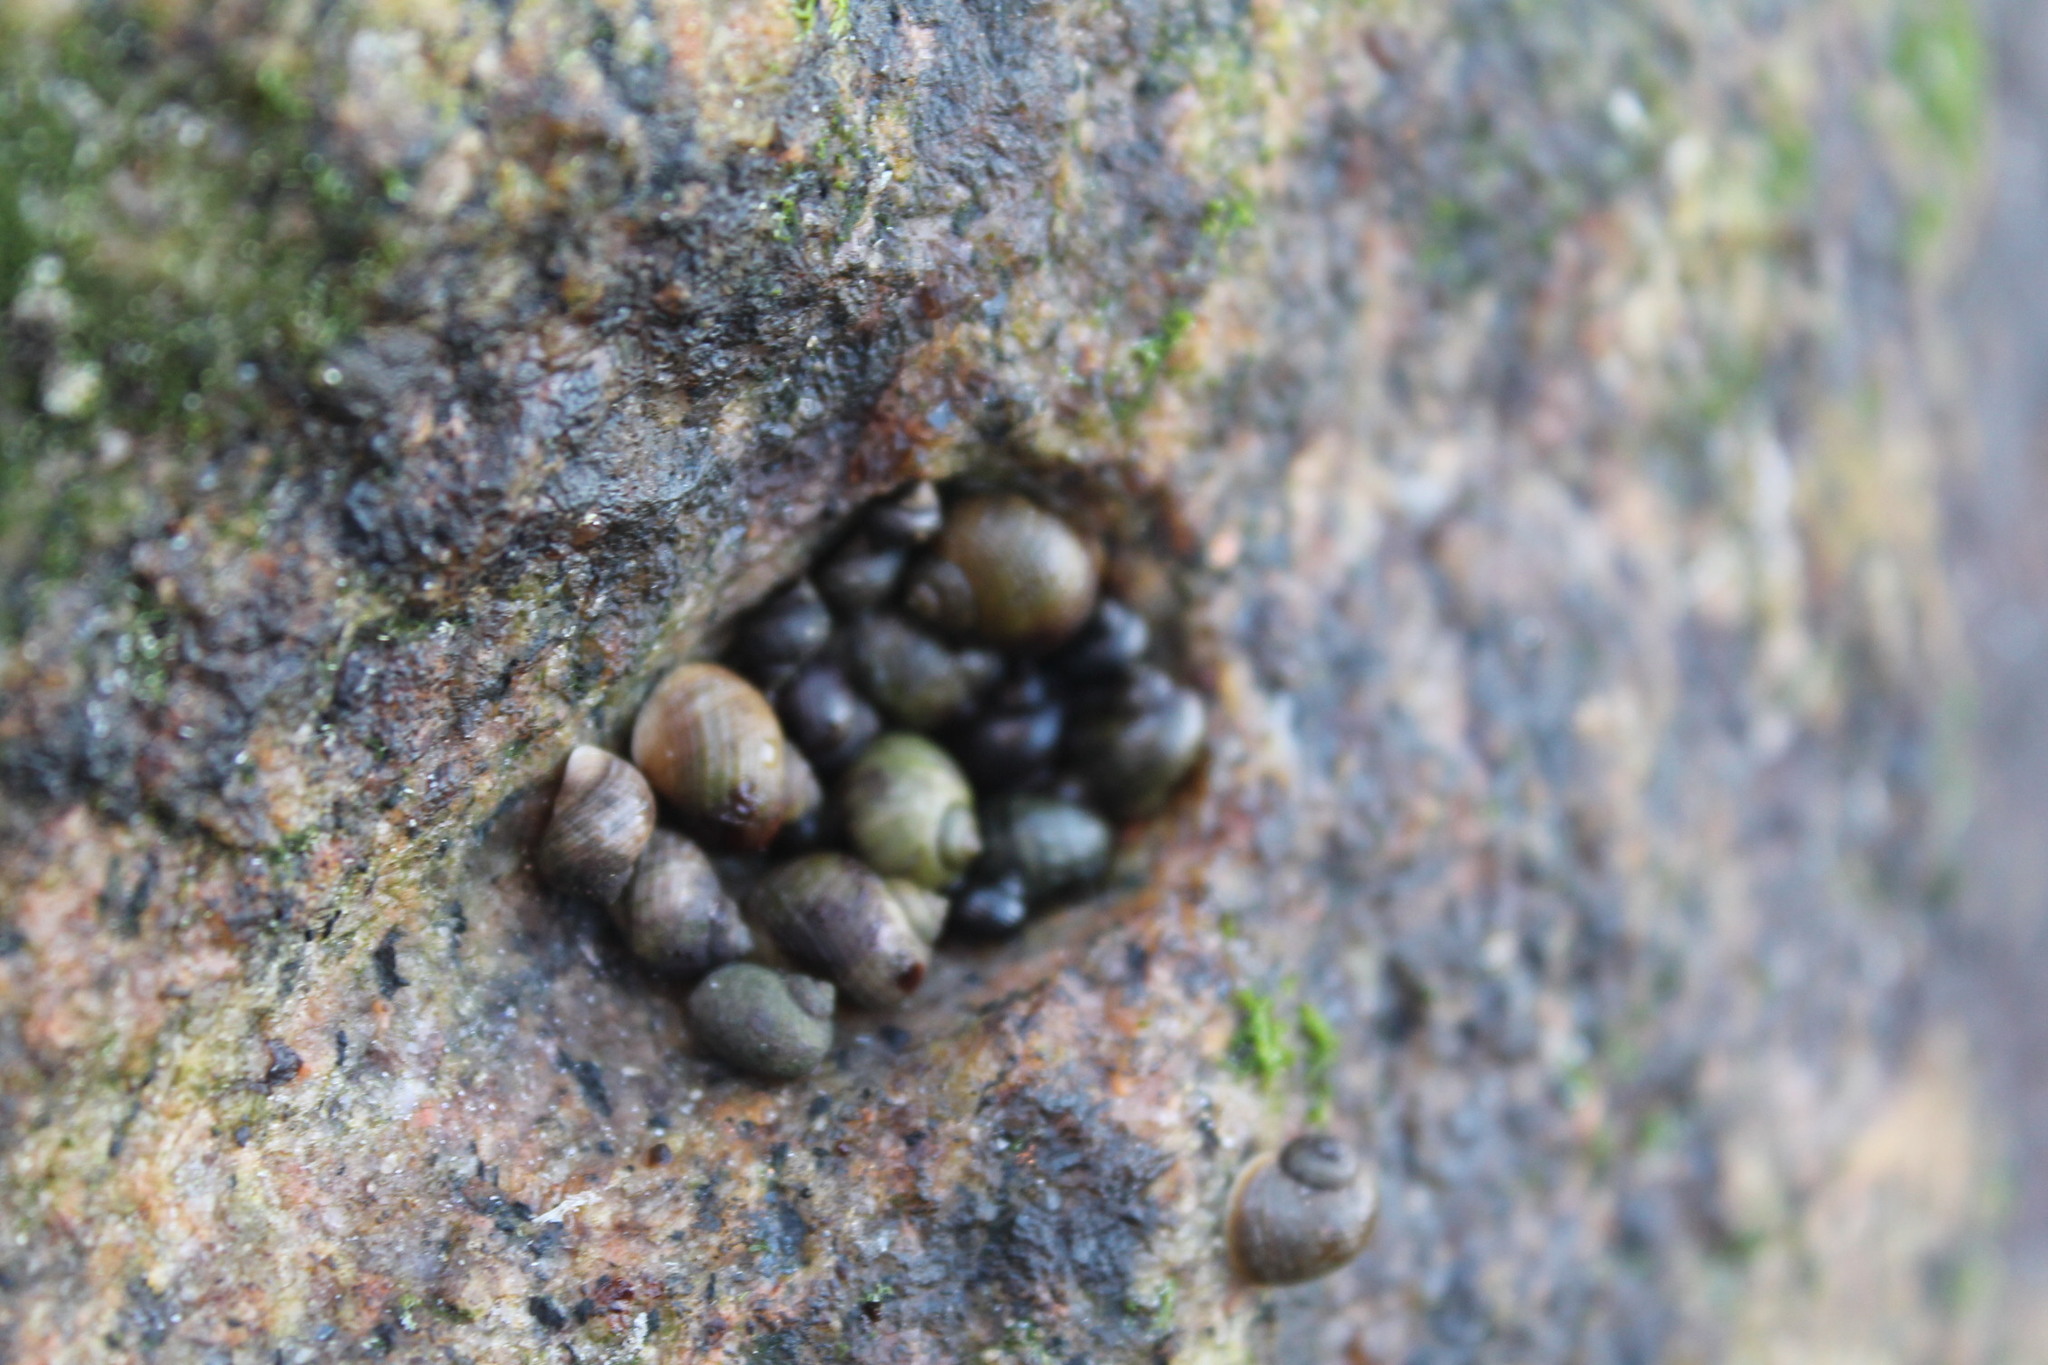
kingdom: Animalia
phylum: Mollusca
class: Gastropoda
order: Littorinimorpha
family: Littorinidae
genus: Littorina
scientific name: Littorina saxatilis
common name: Black-lined periwinkle
